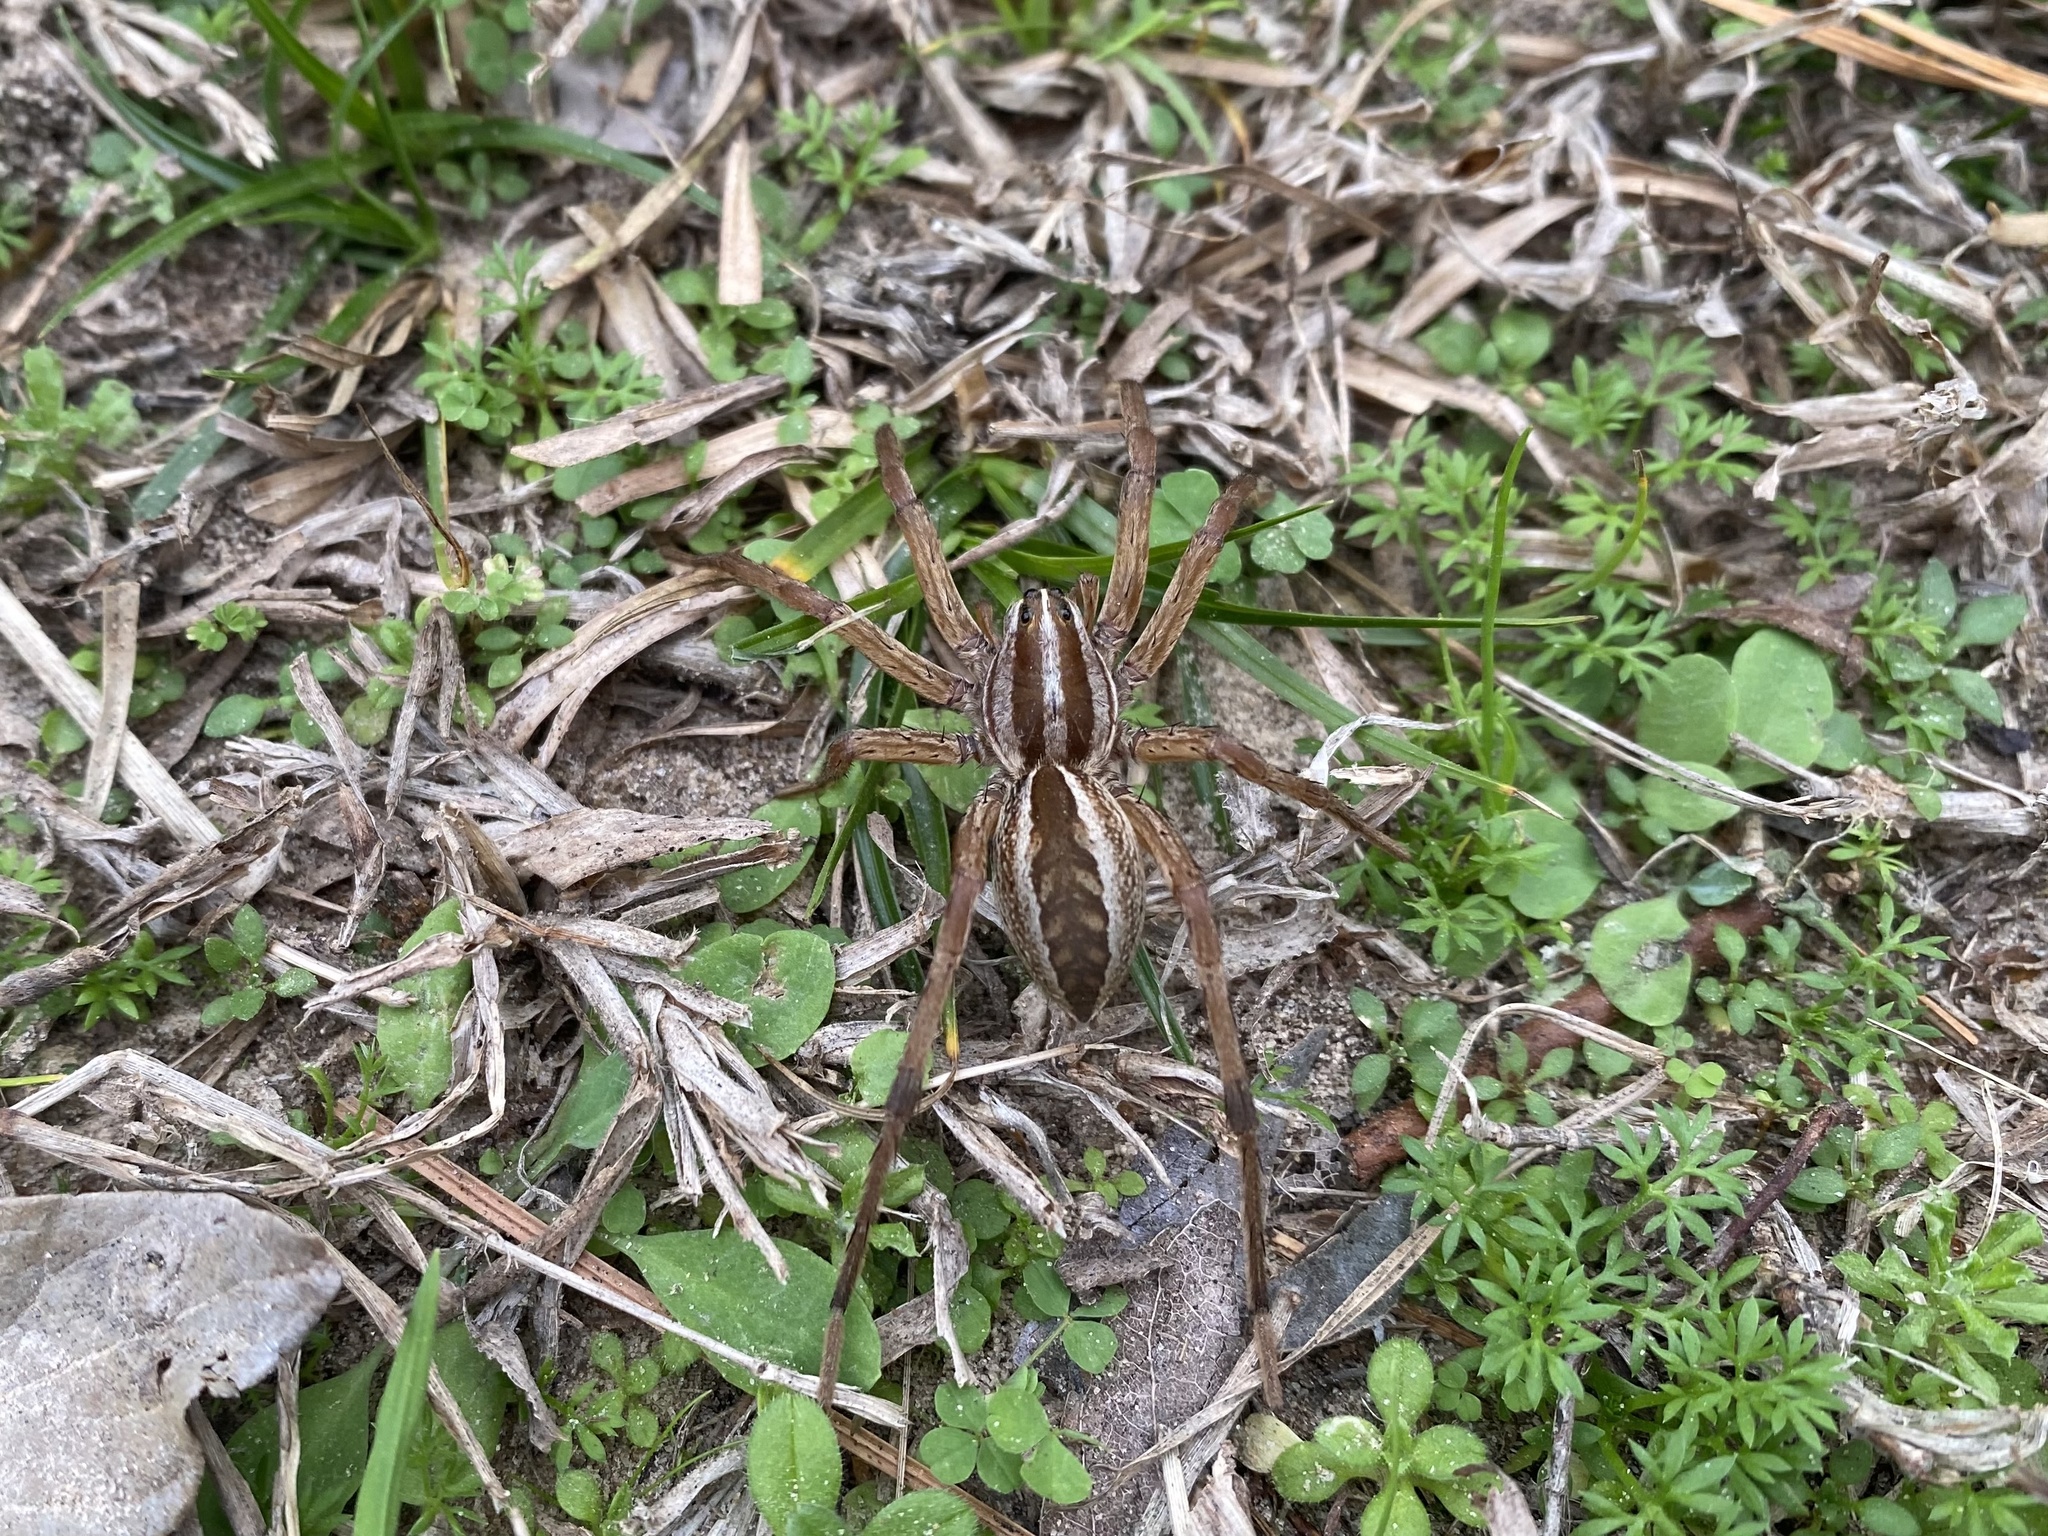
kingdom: Animalia
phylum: Arthropoda
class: Arachnida
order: Araneae
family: Lycosidae
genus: Rabidosa
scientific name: Rabidosa rabida
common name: Rabid wolf spider
